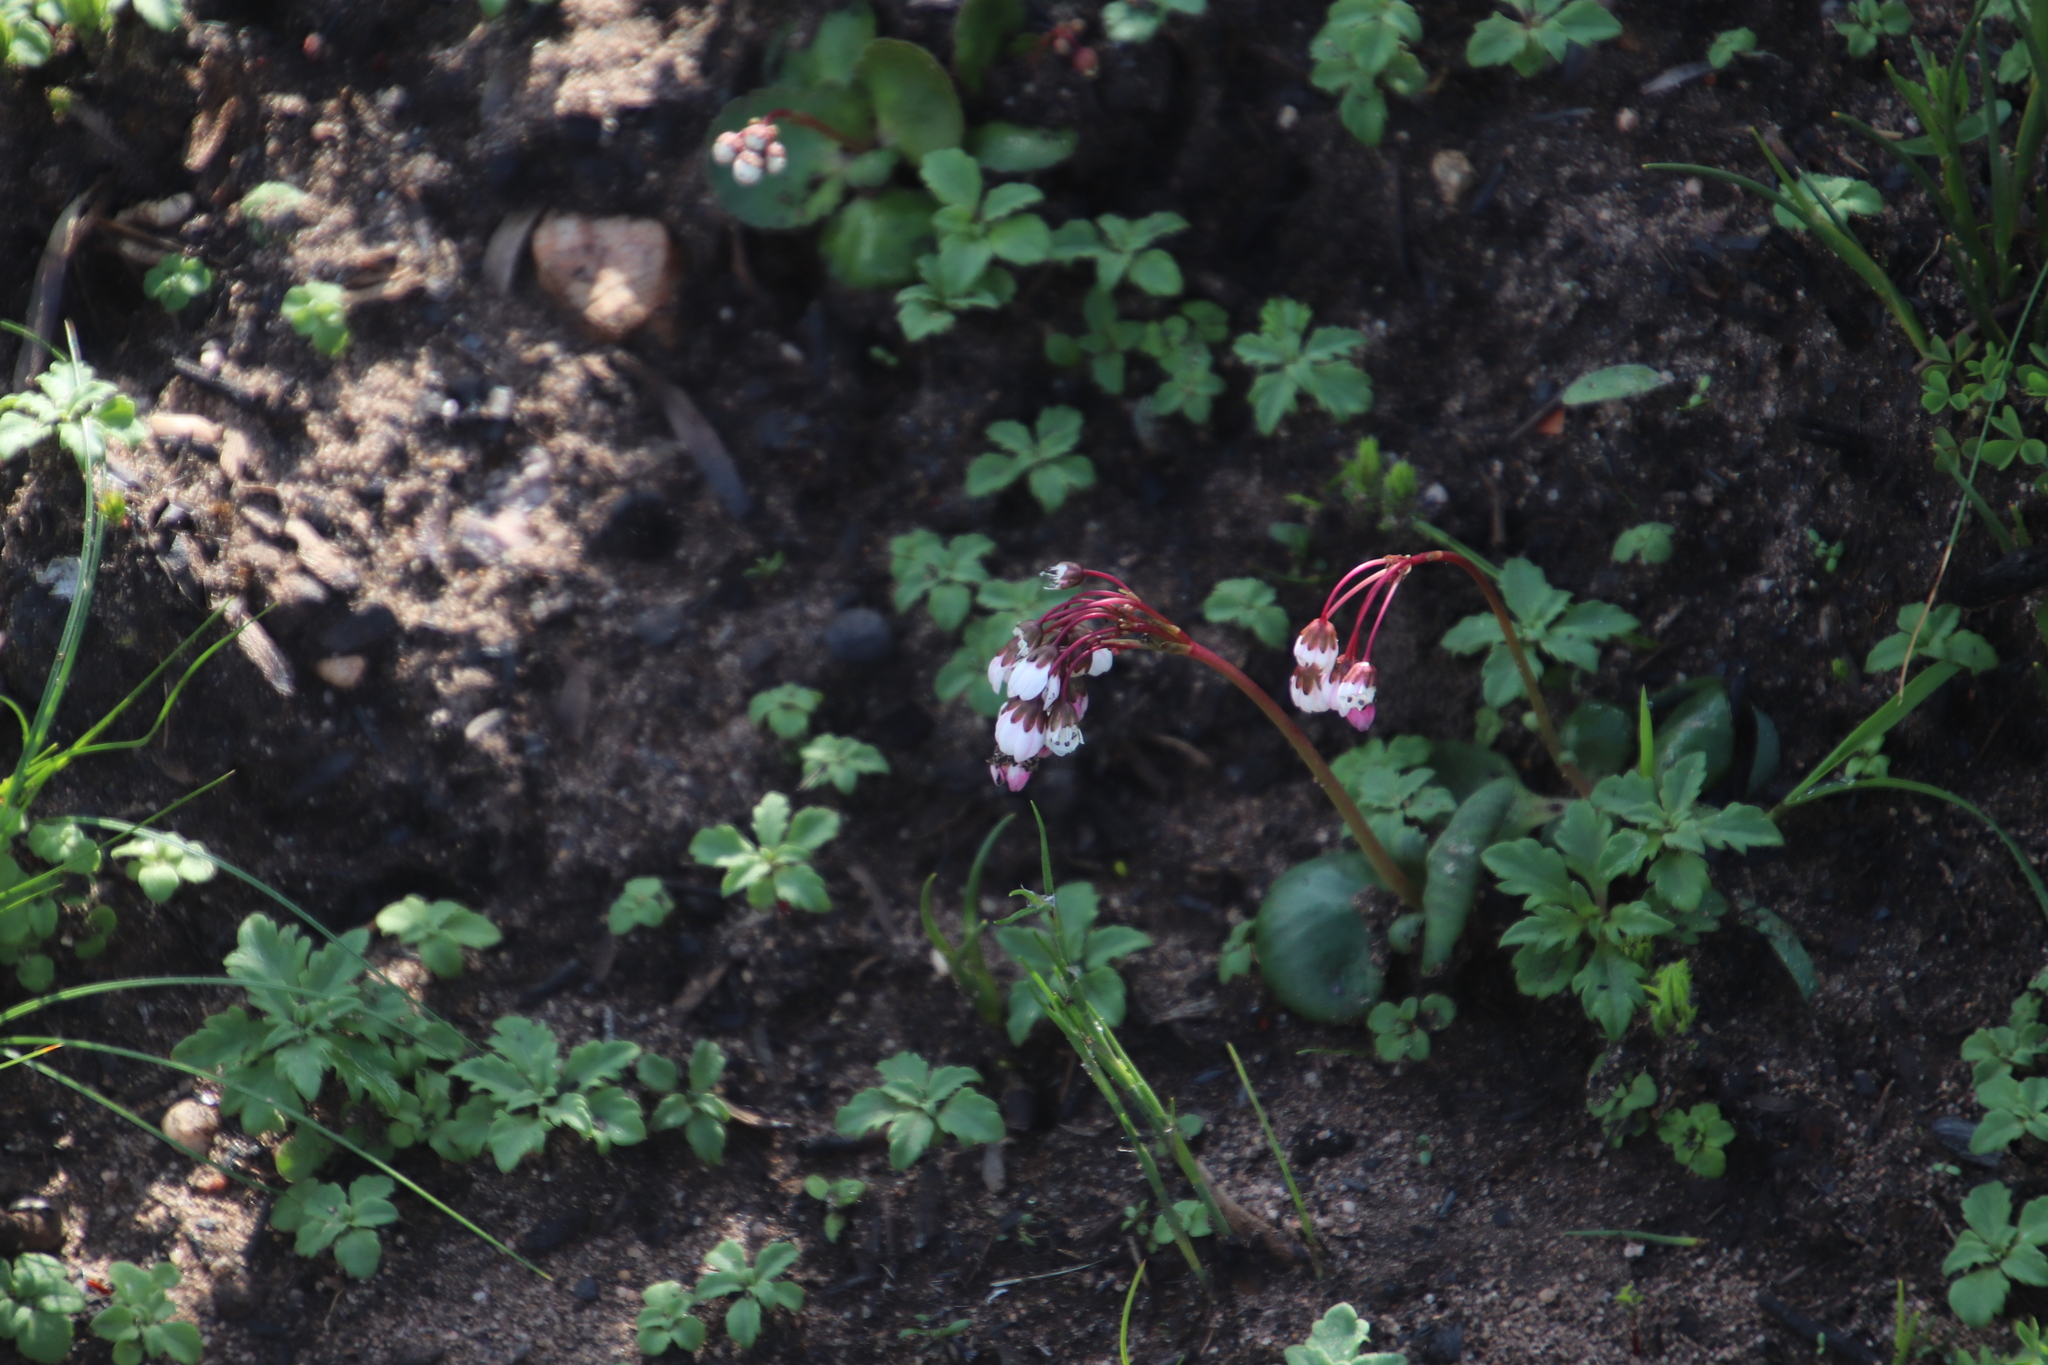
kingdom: Plantae
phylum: Tracheophyta
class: Magnoliopsida
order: Saxifragales
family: Crassulaceae
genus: Crassula
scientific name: Crassula capensis
